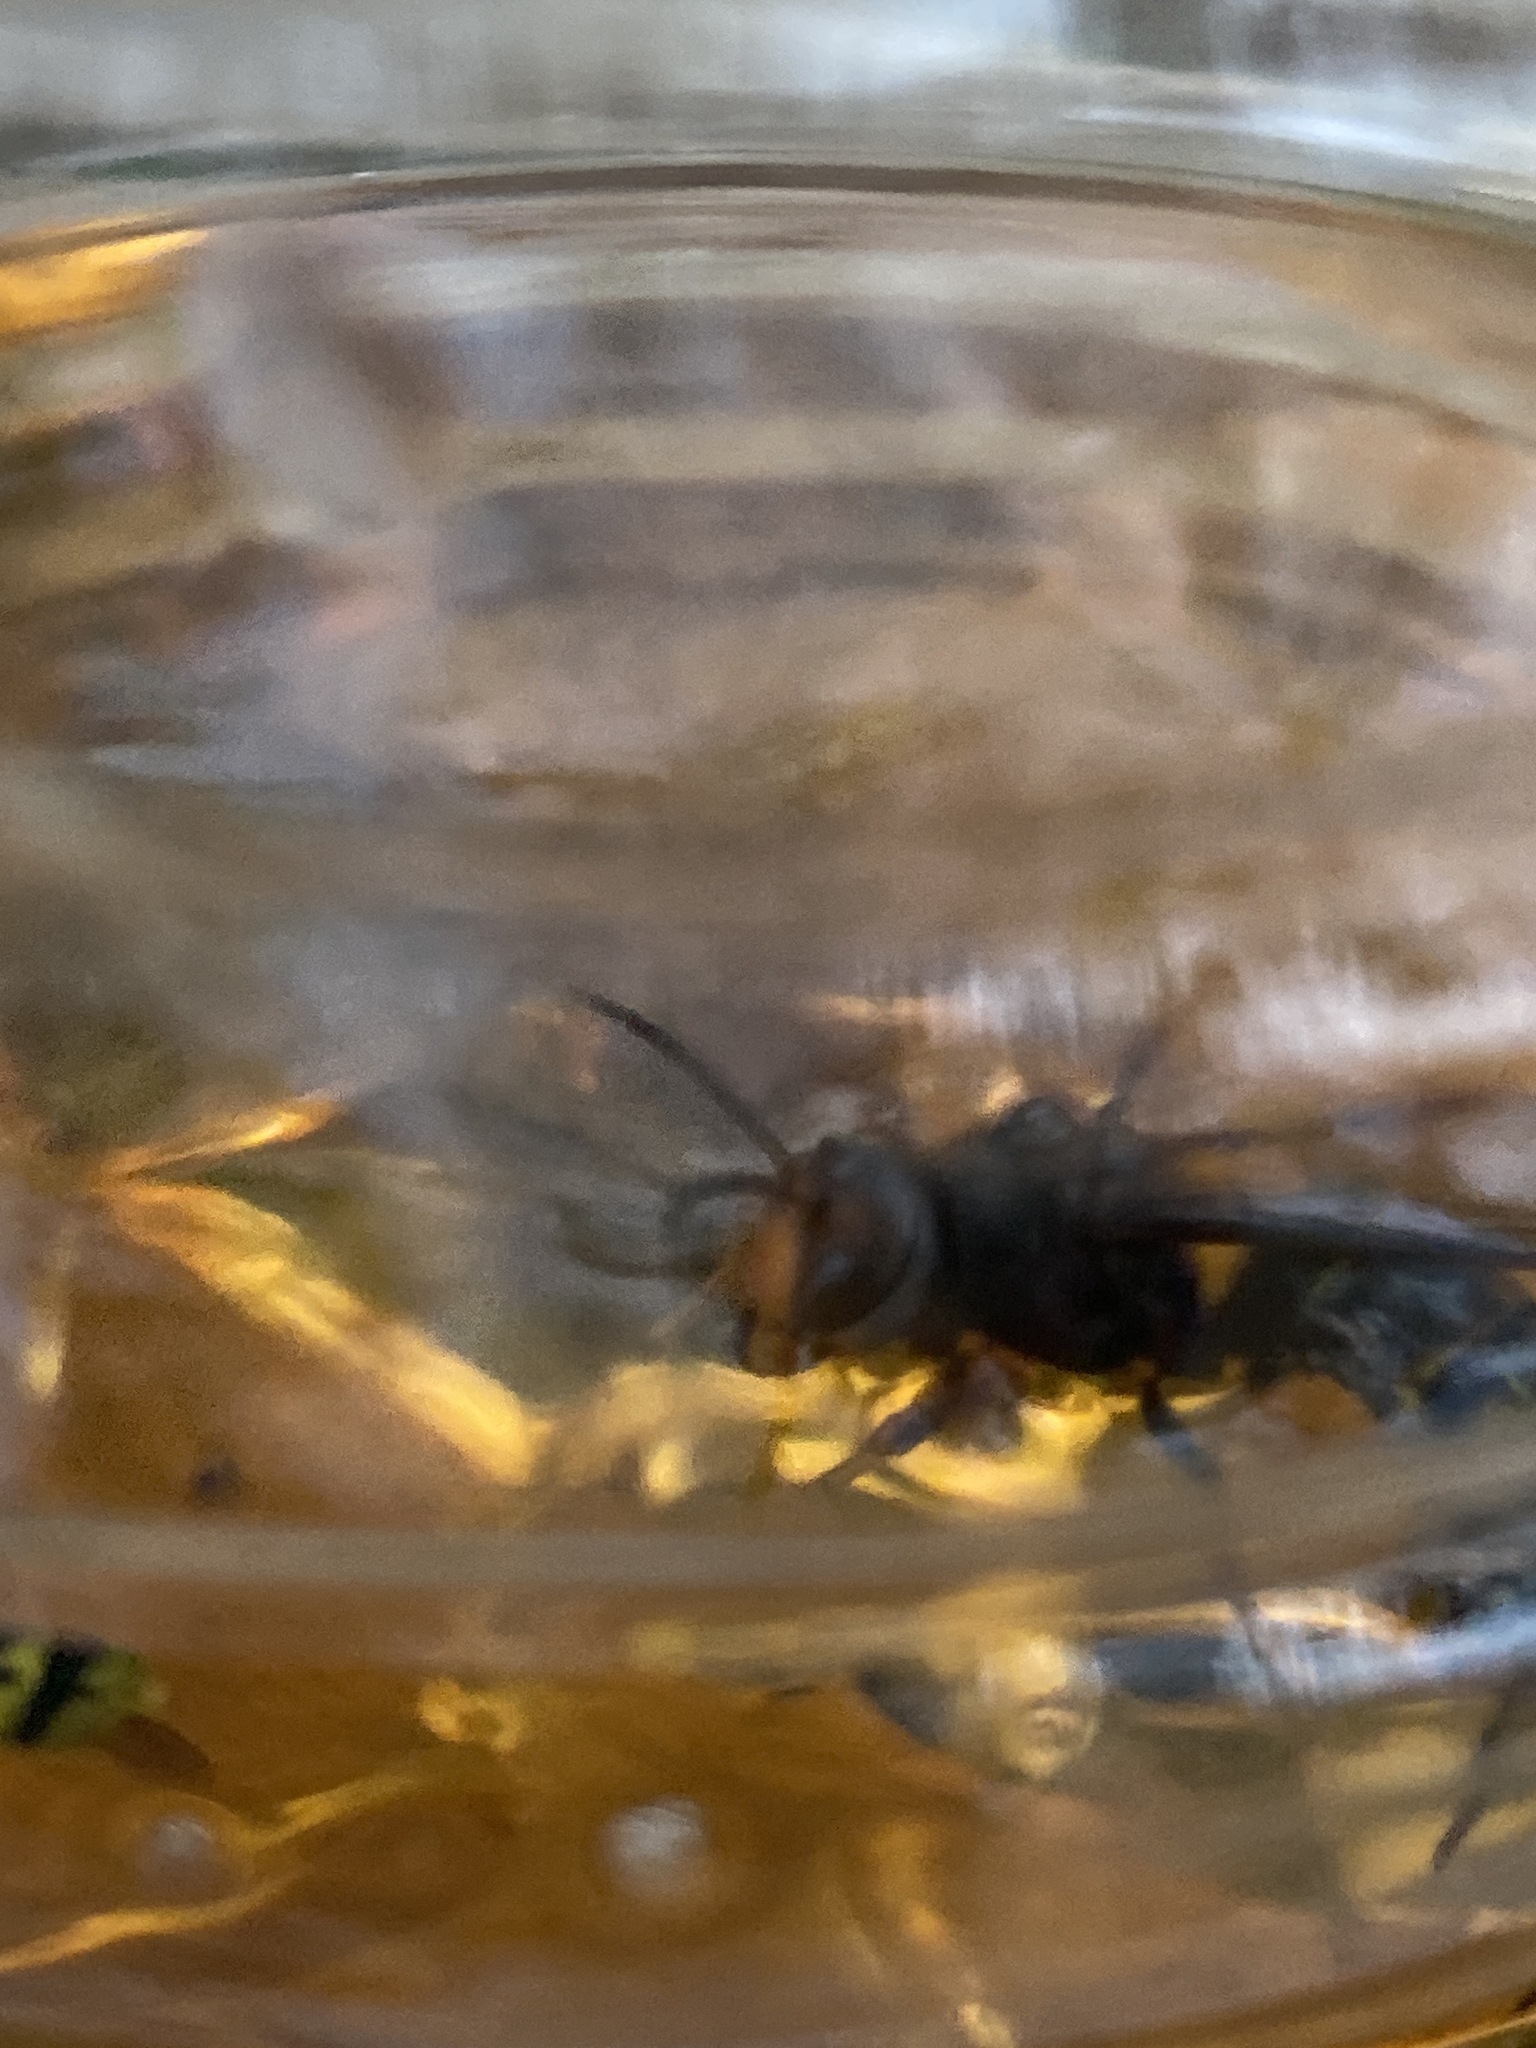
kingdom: Animalia
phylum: Arthropoda
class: Insecta
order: Hymenoptera
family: Vespidae
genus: Vespa
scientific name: Vespa velutina
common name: Asian hornet
